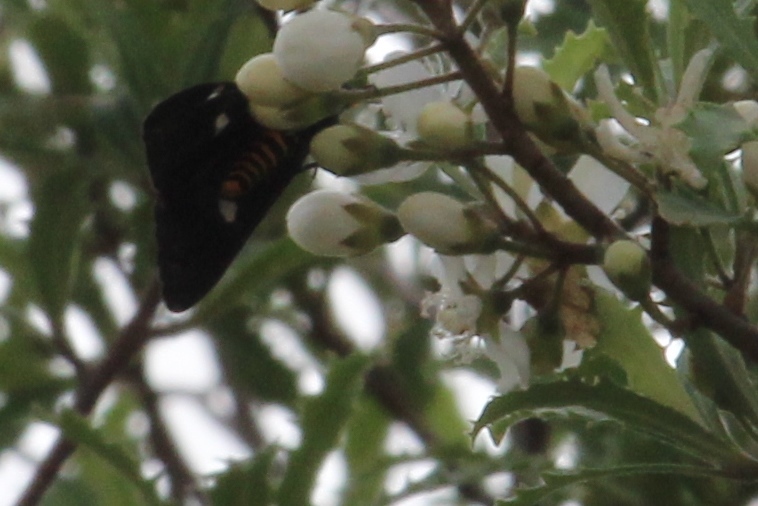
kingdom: Animalia
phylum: Arthropoda
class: Insecta
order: Lepidoptera
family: Erebidae
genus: Nyctemera
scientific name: Nyctemera annulatum
